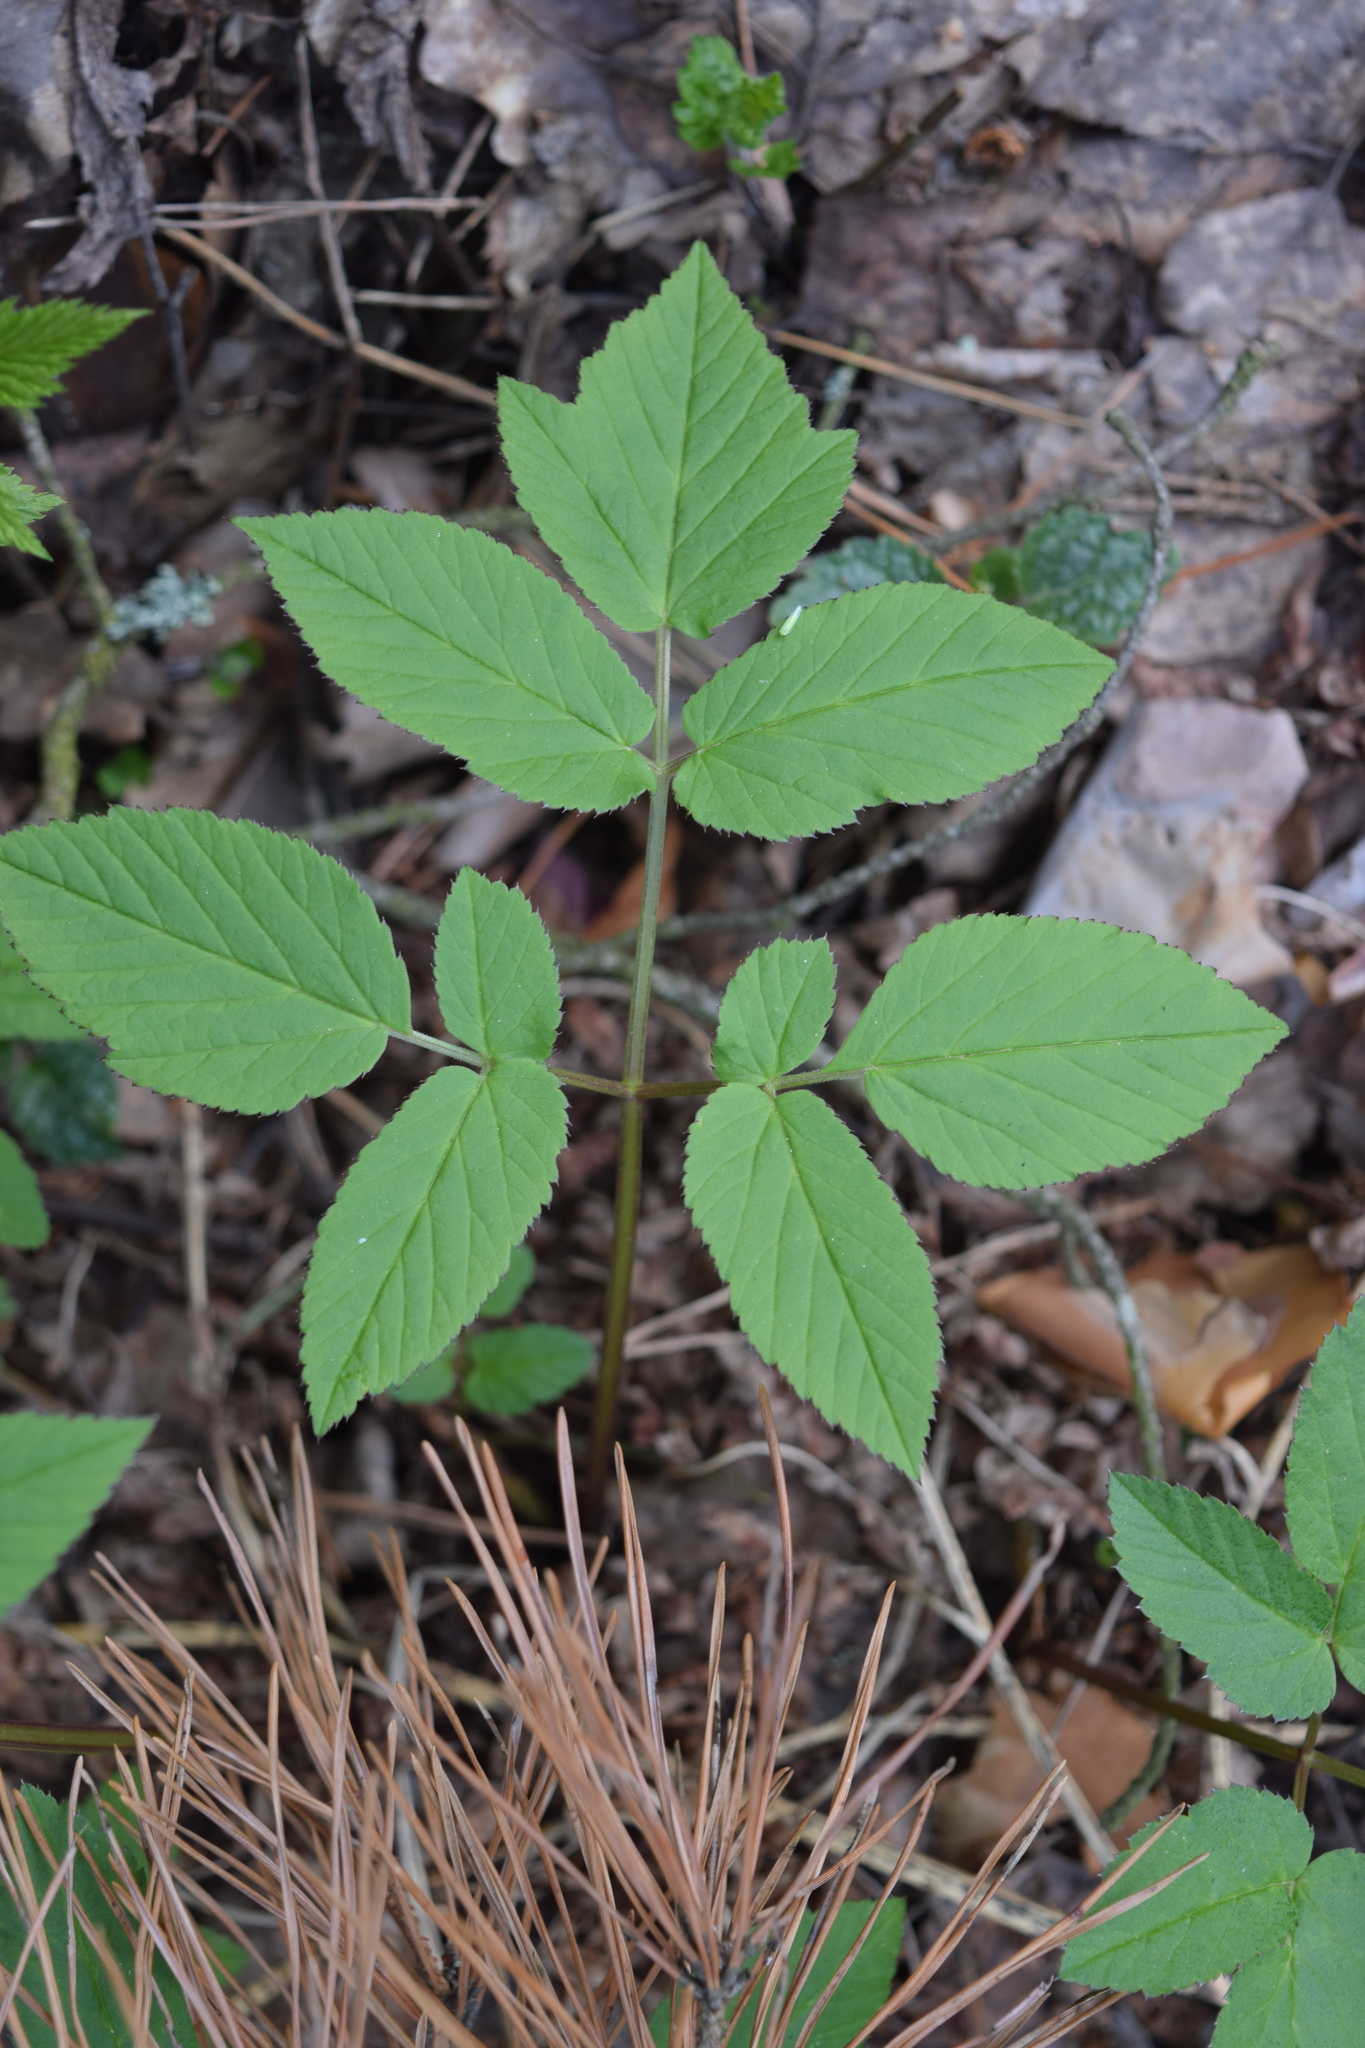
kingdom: Plantae
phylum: Tracheophyta
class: Magnoliopsida
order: Apiales
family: Apiaceae
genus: Aegopodium
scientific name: Aegopodium podagraria
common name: Ground-elder
